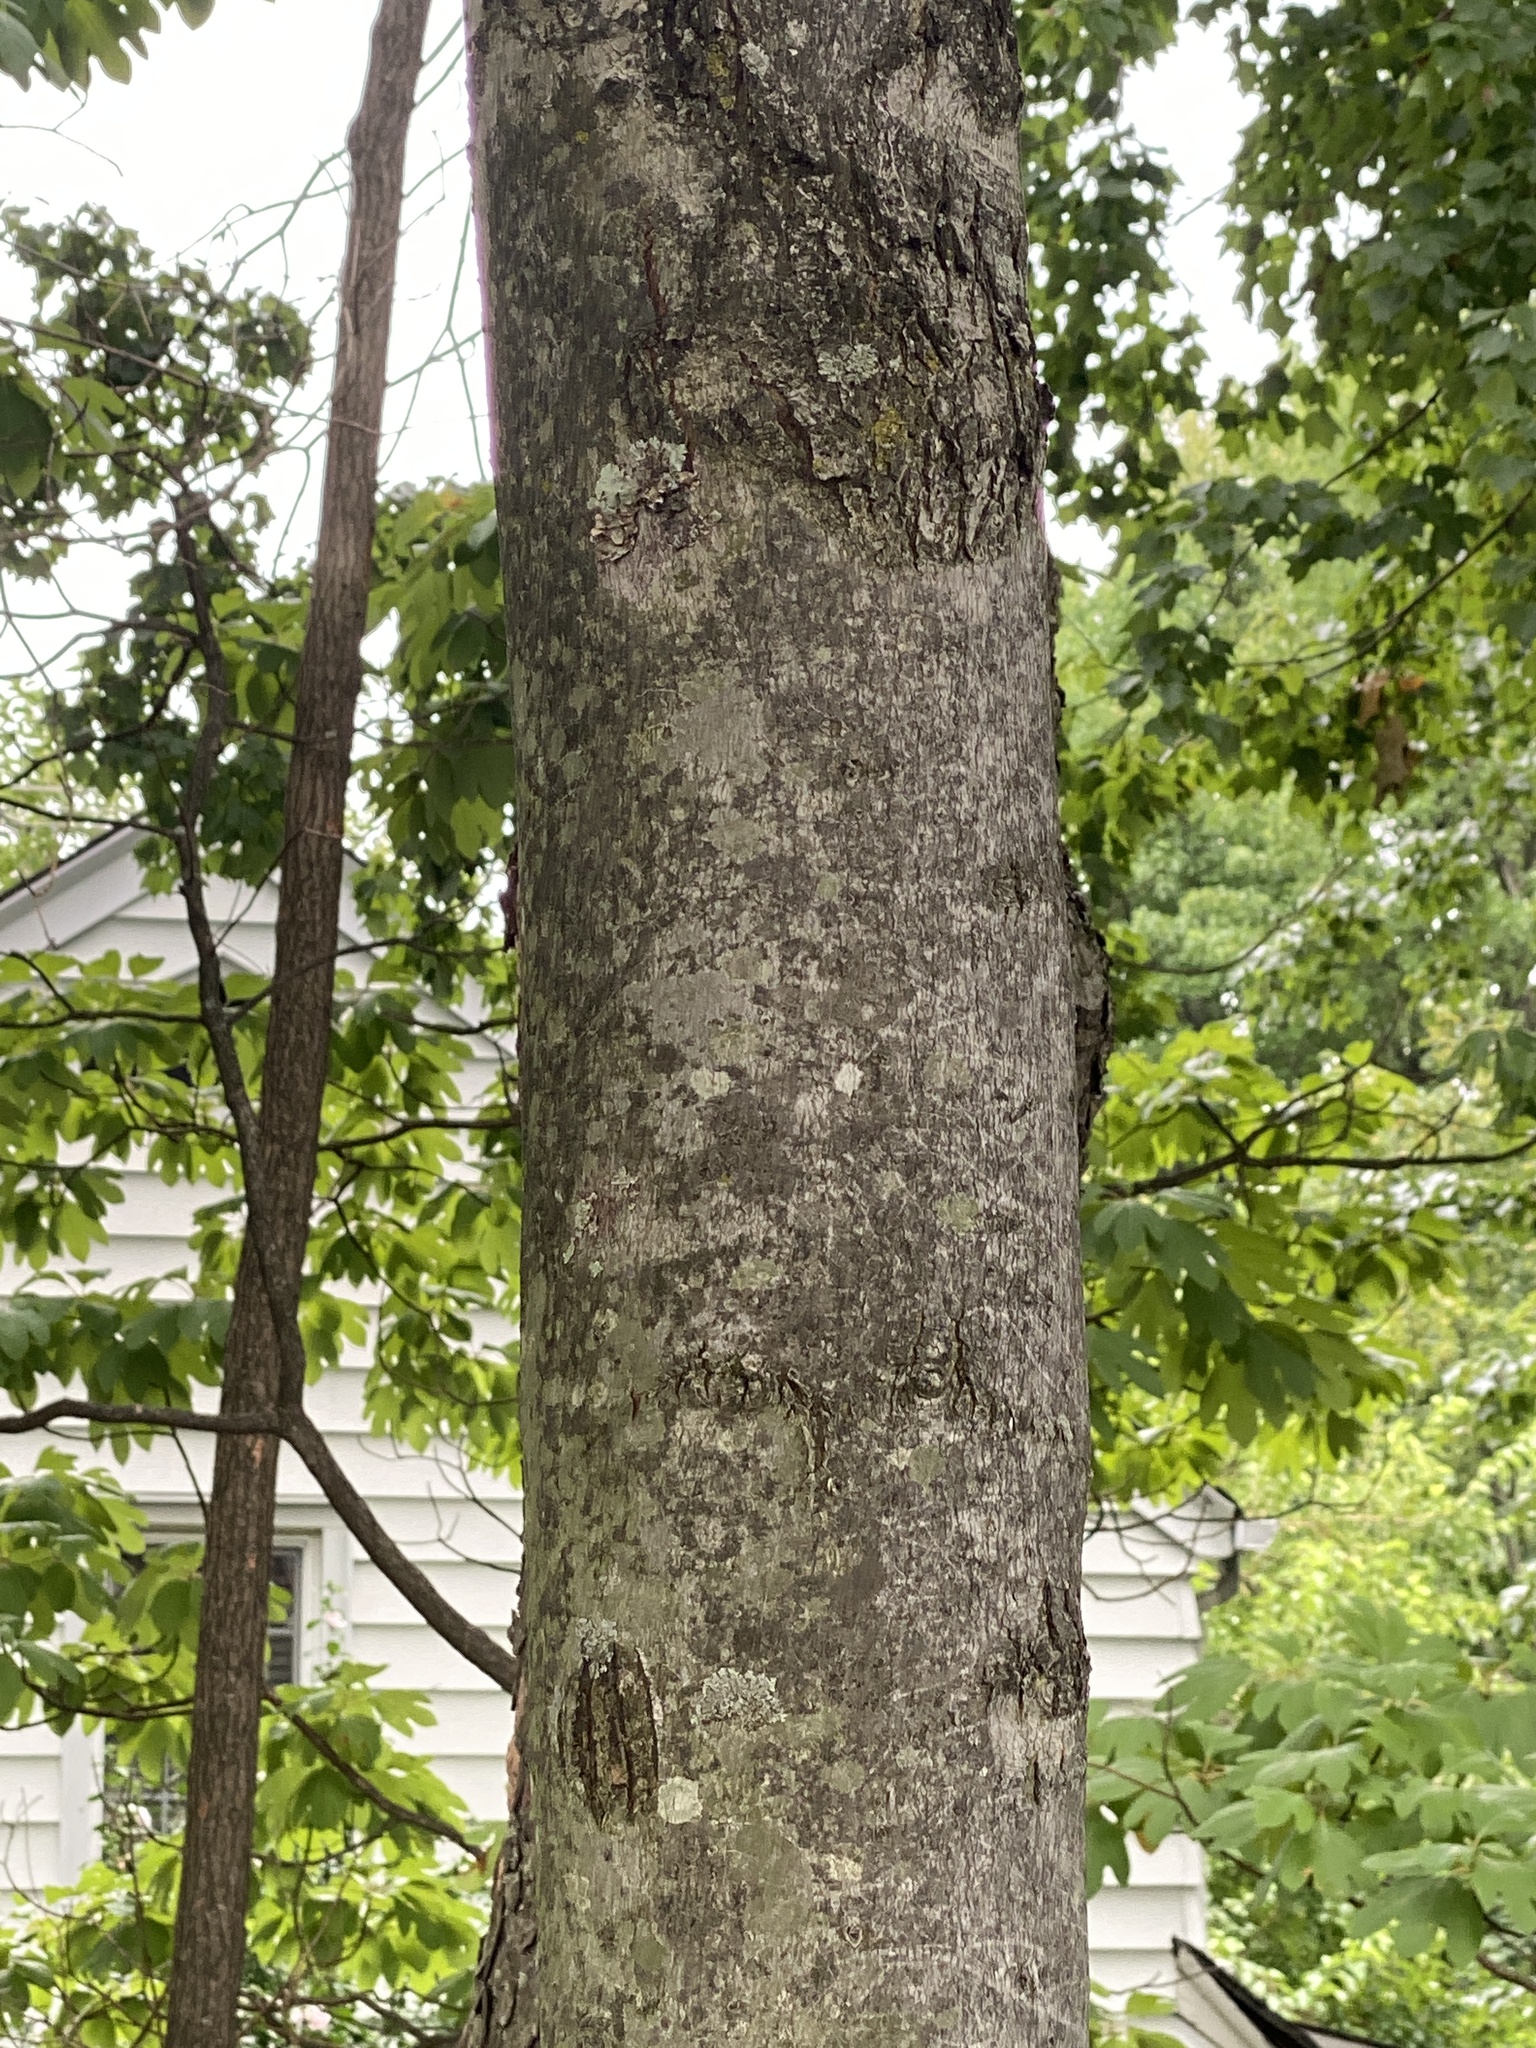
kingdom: Plantae
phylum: Tracheophyta
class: Magnoliopsida
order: Sapindales
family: Sapindaceae
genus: Acer
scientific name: Acer rubrum
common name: Red maple
